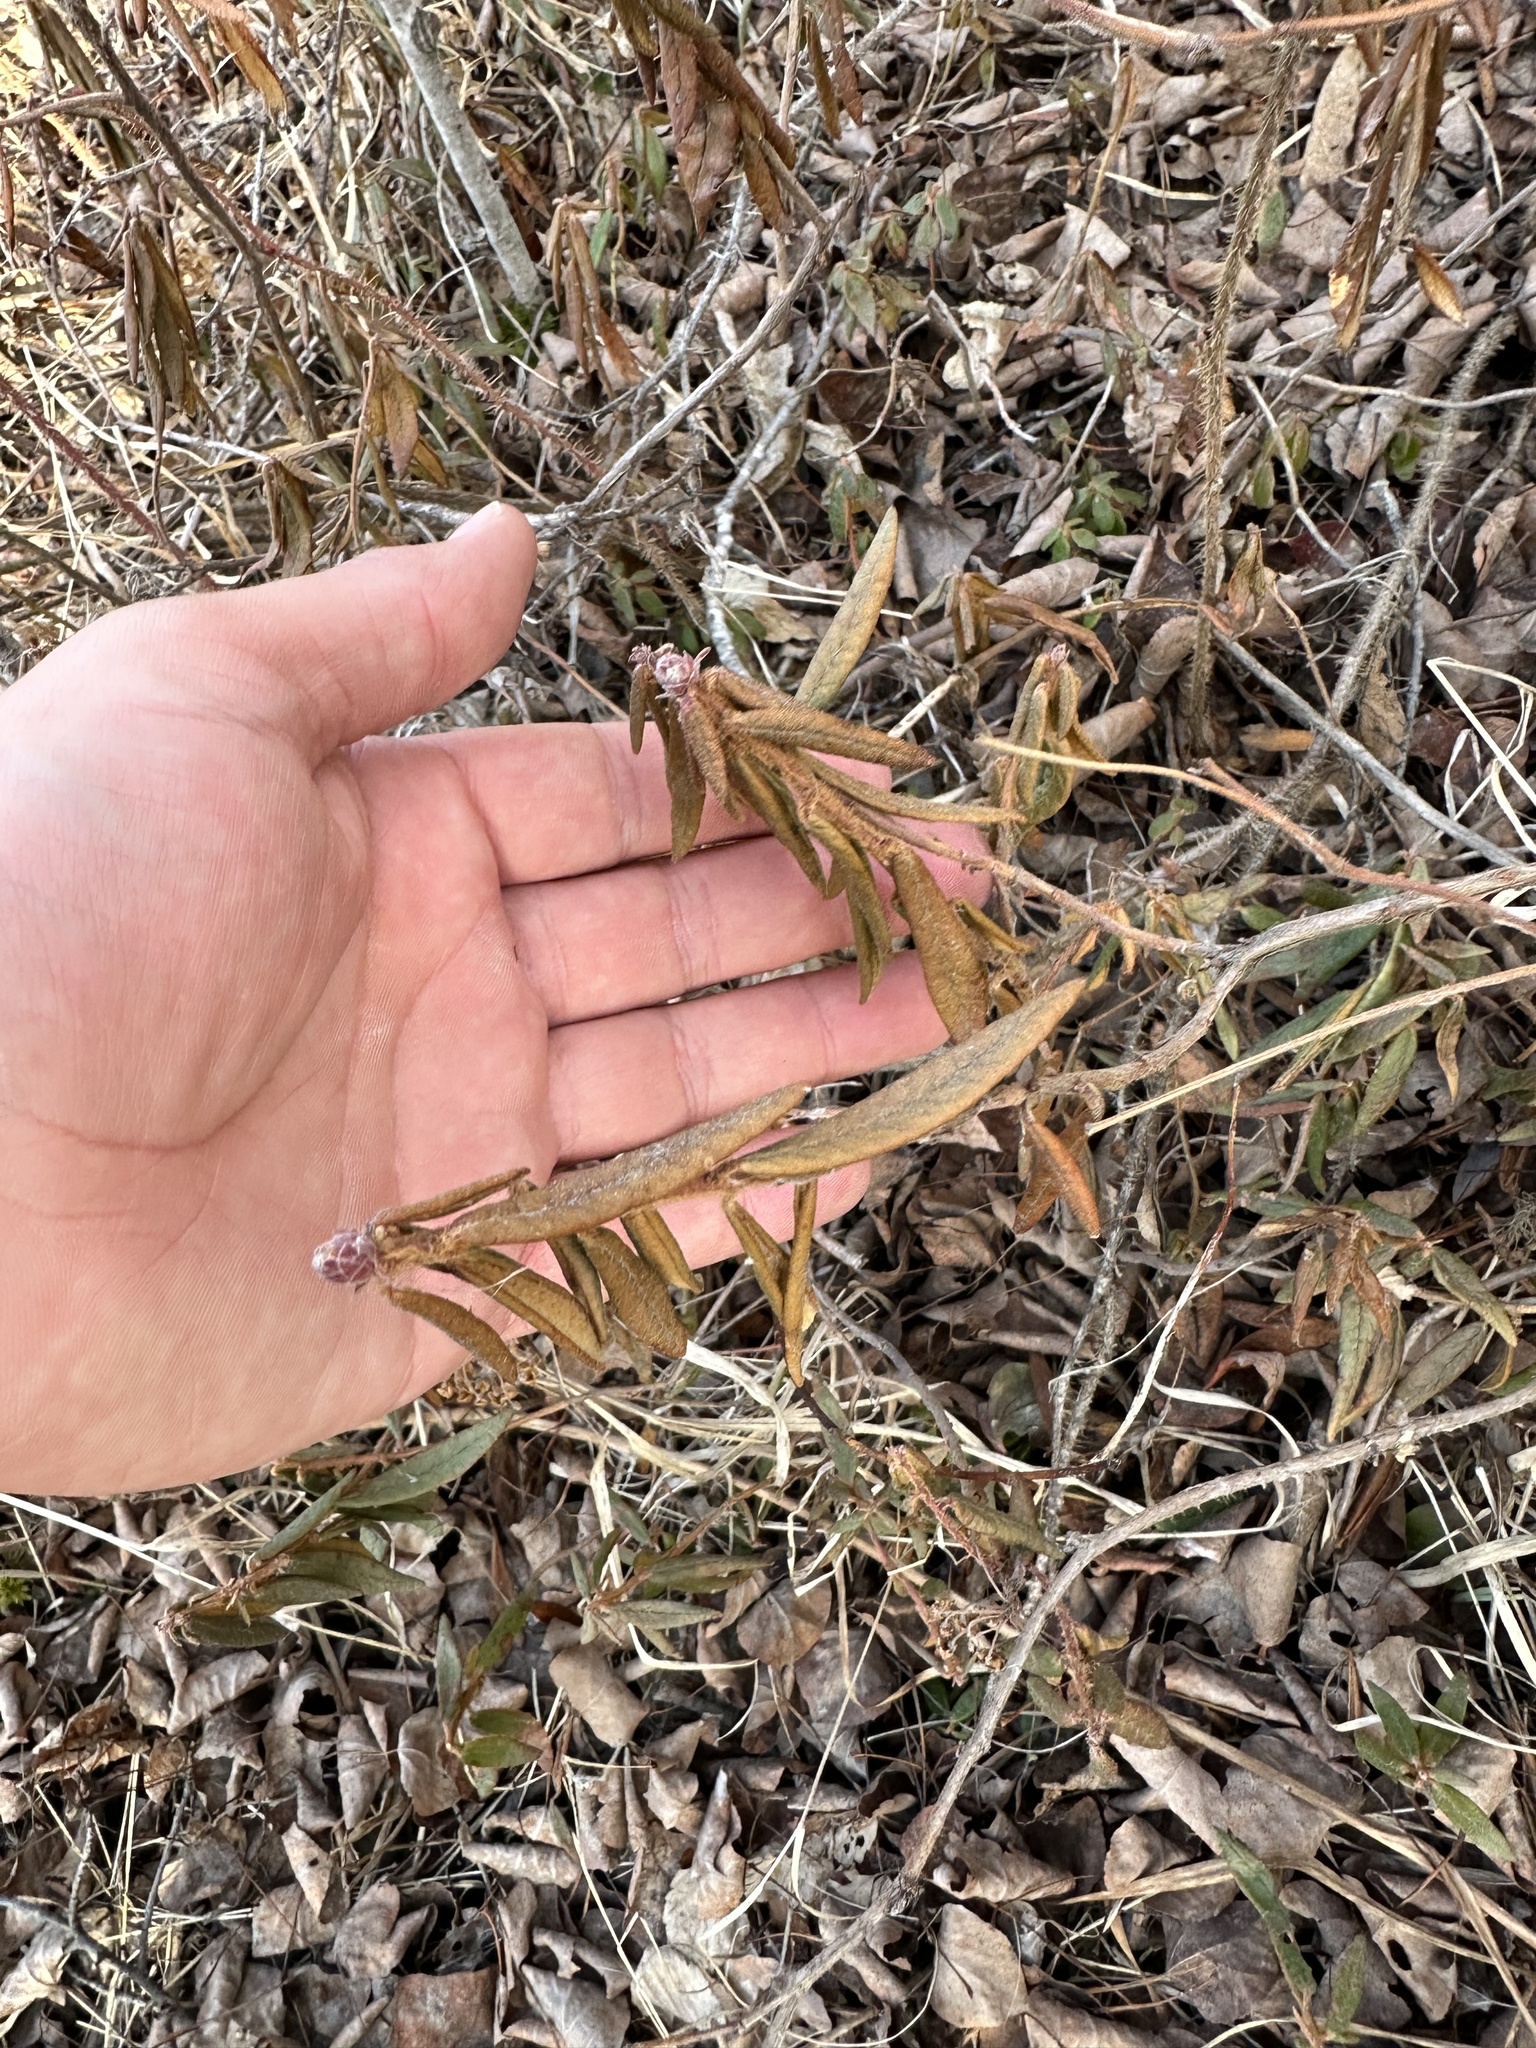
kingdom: Plantae
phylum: Tracheophyta
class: Magnoliopsida
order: Ericales
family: Ericaceae
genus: Rhododendron
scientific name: Rhododendron groenlandicum
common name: Bog labrador tea
